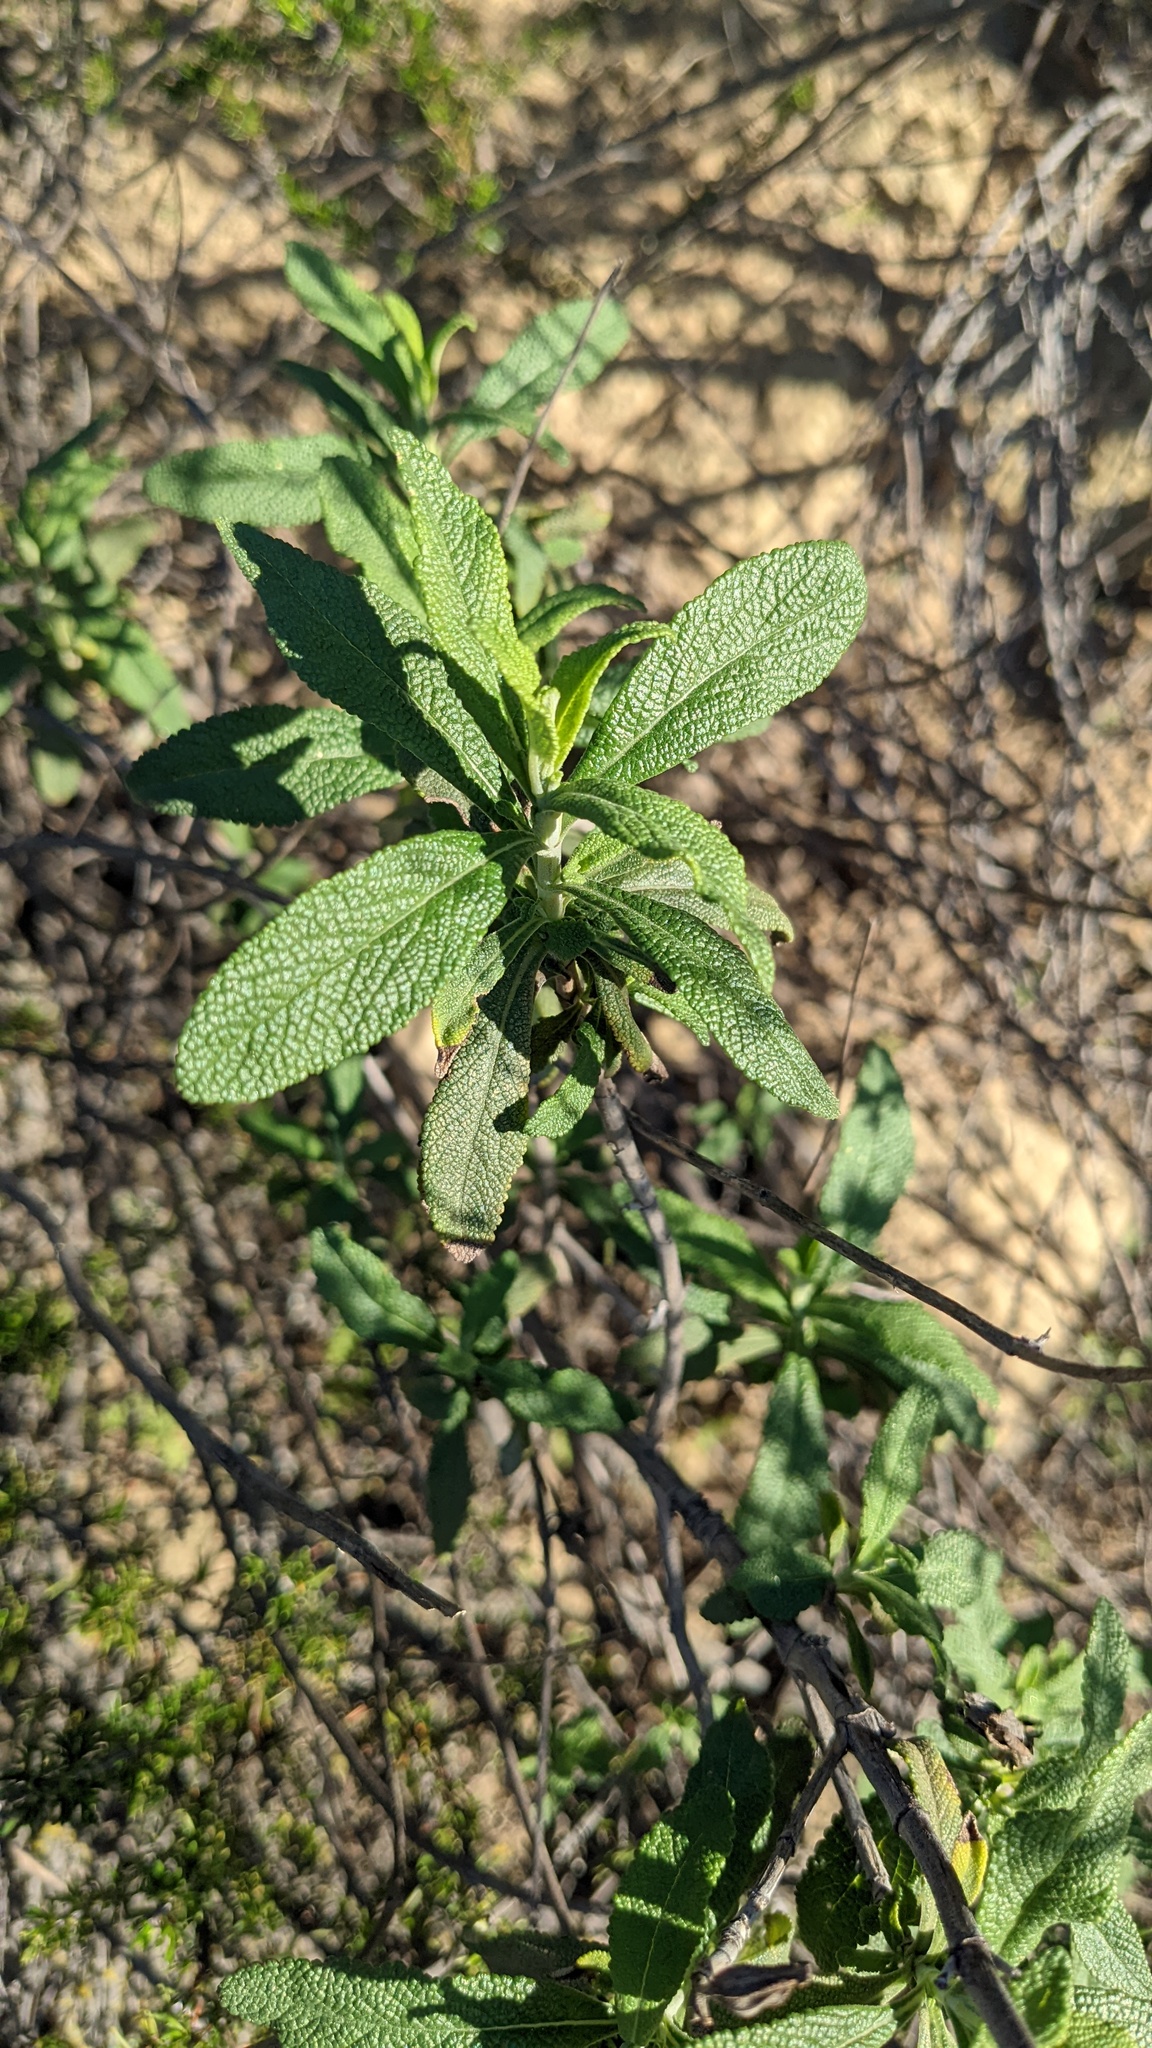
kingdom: Plantae
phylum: Tracheophyta
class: Magnoliopsida
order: Lamiales
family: Lamiaceae
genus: Salvia
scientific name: Salvia mellifera
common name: Black sage
